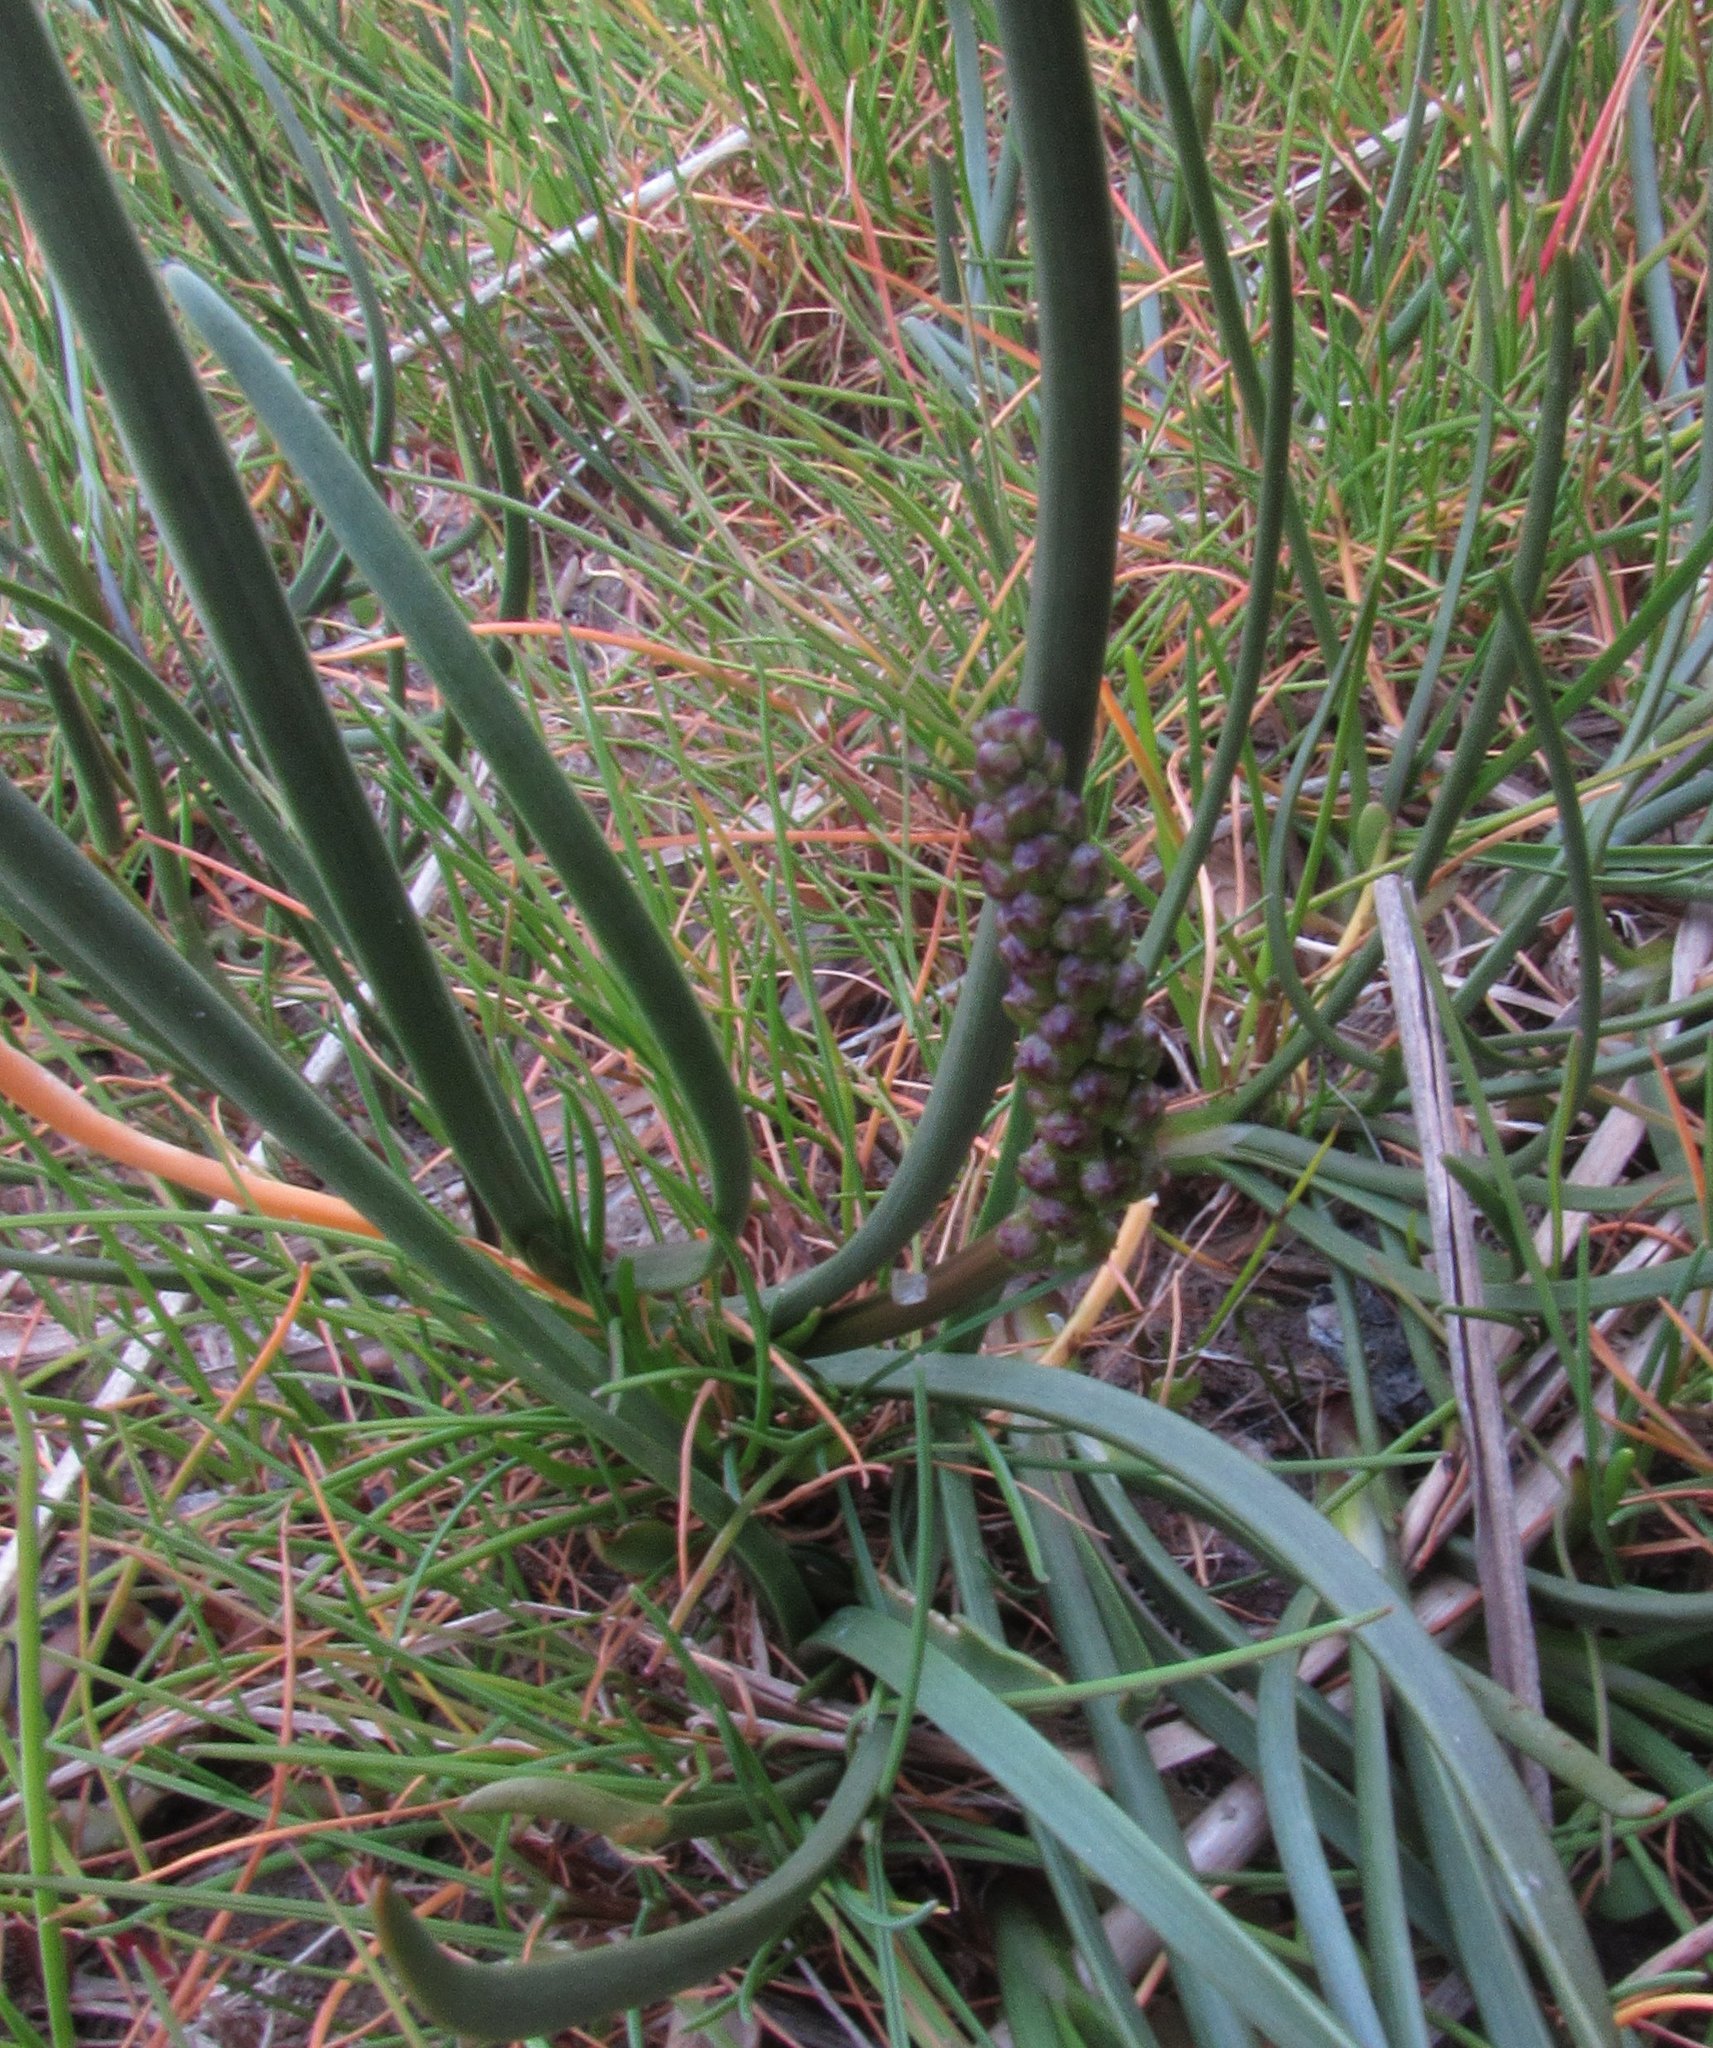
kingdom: Plantae
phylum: Tracheophyta
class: Magnoliopsida
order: Lamiales
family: Plantaginaceae
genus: Plantago
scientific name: Plantago maritima
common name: Sea plantain
